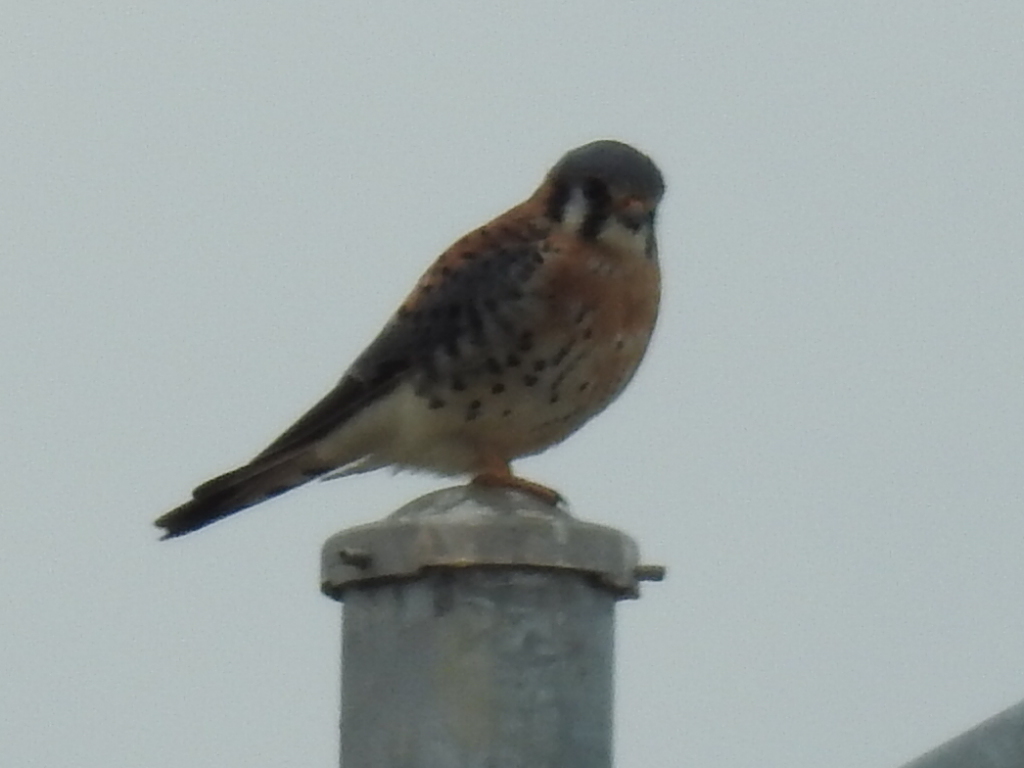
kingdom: Animalia
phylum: Chordata
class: Aves
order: Falconiformes
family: Falconidae
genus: Falco
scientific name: Falco sparverius
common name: American kestrel
